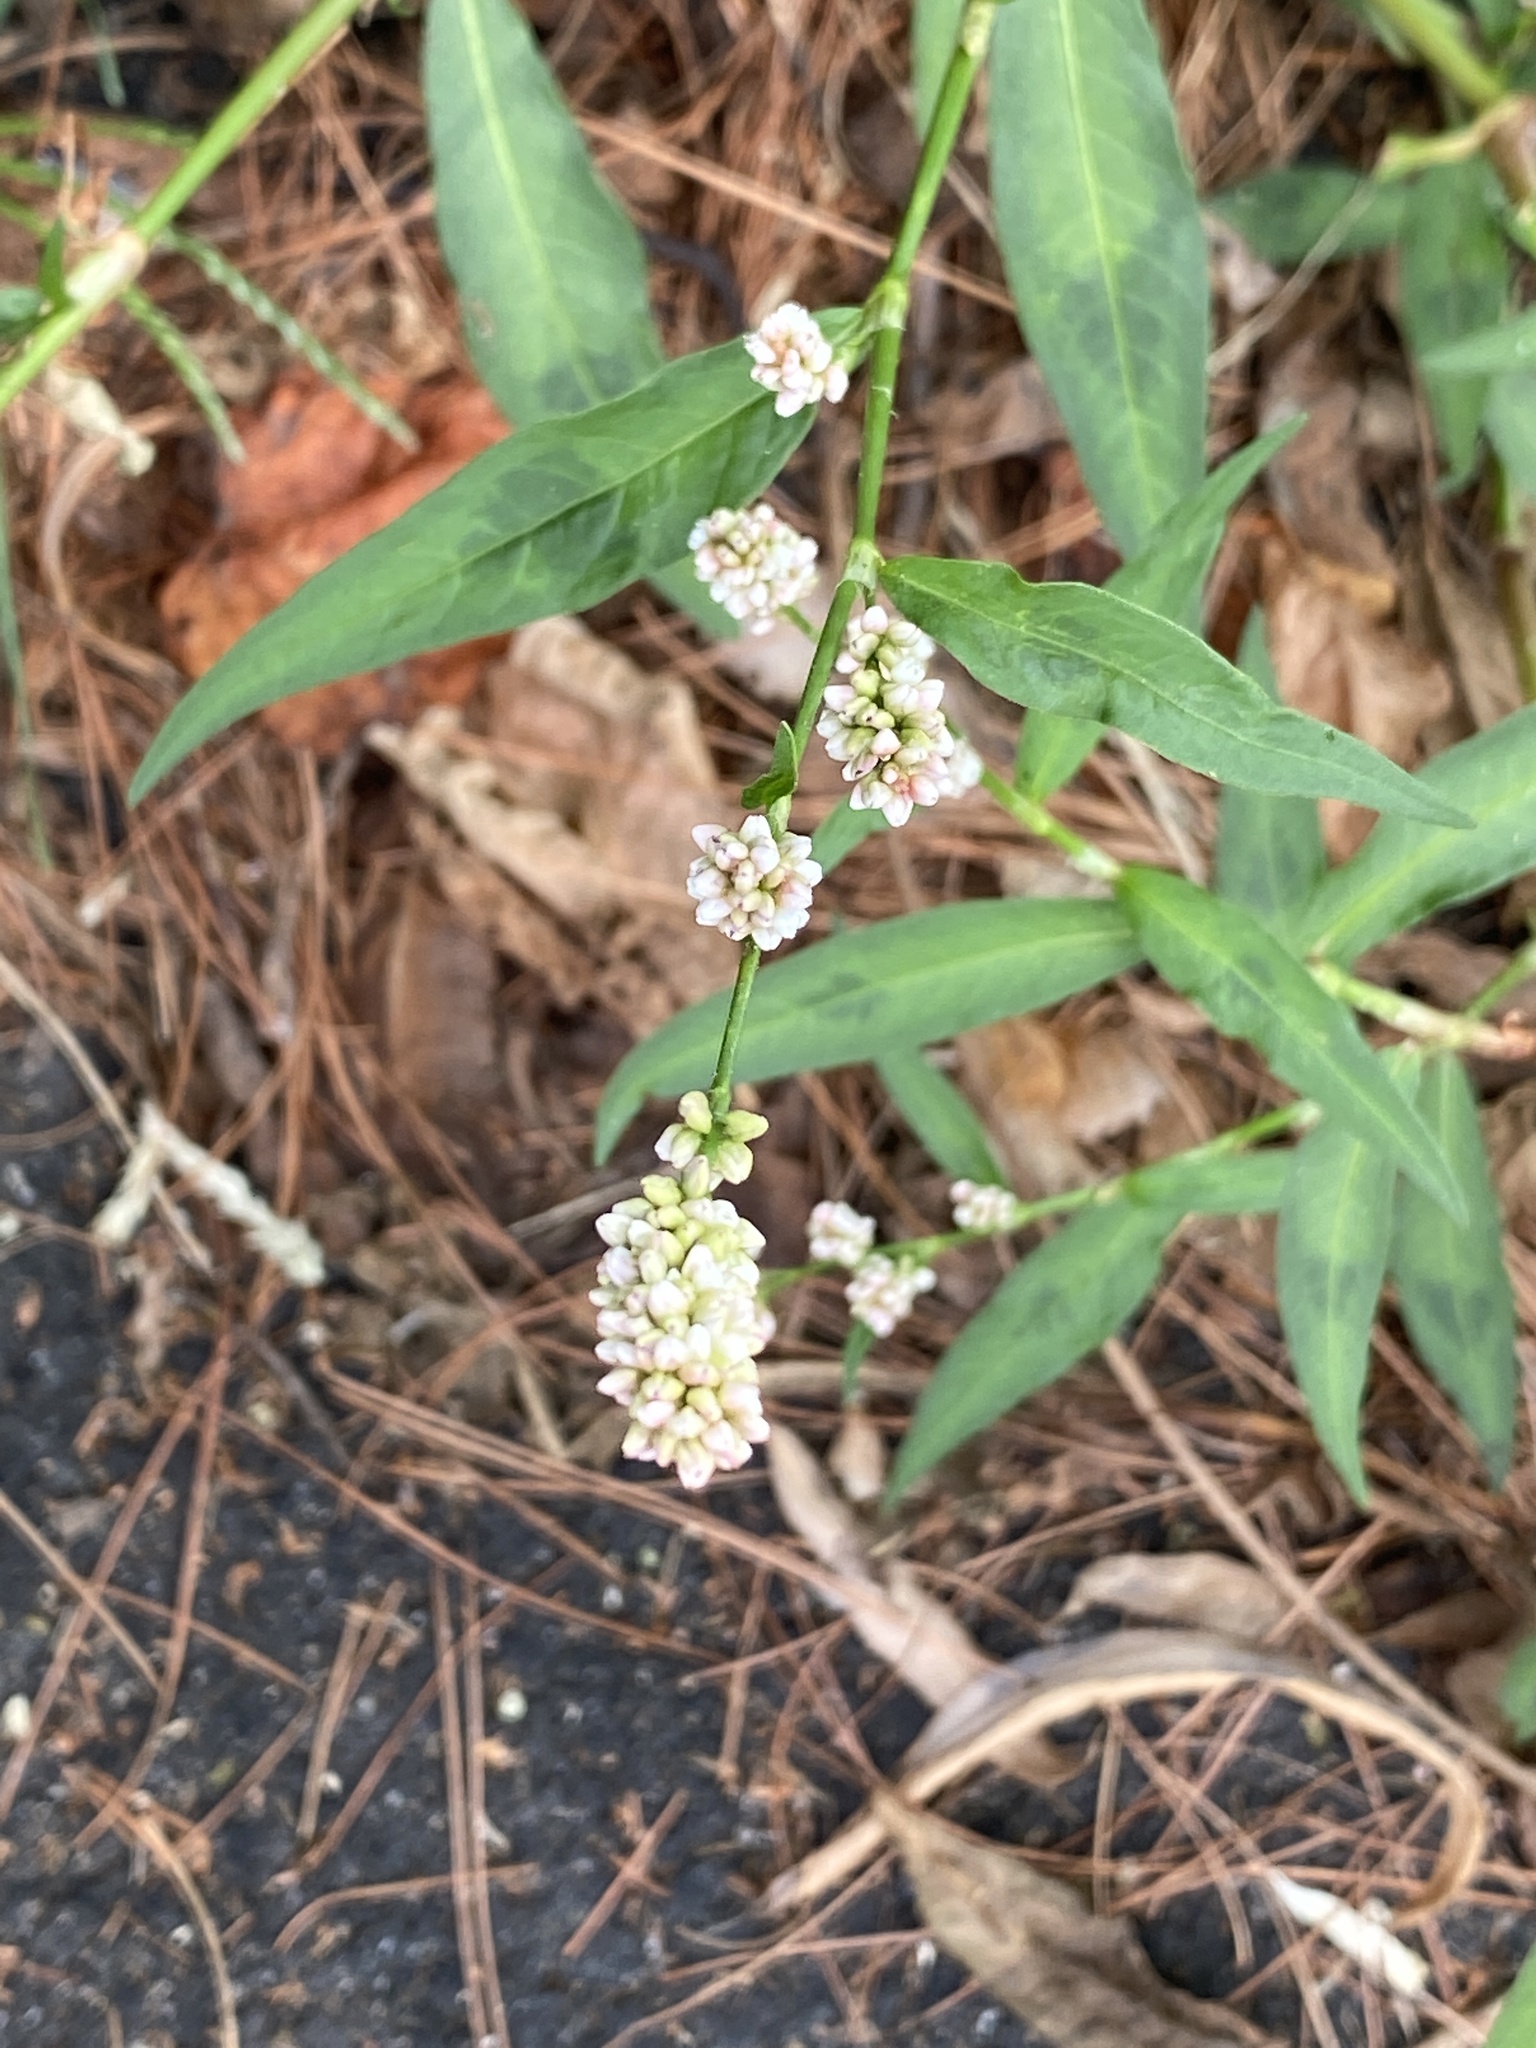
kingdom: Plantae
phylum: Tracheophyta
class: Magnoliopsida
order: Caryophyllales
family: Polygonaceae
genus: Persicaria
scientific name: Persicaria maculosa
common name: Redshank
